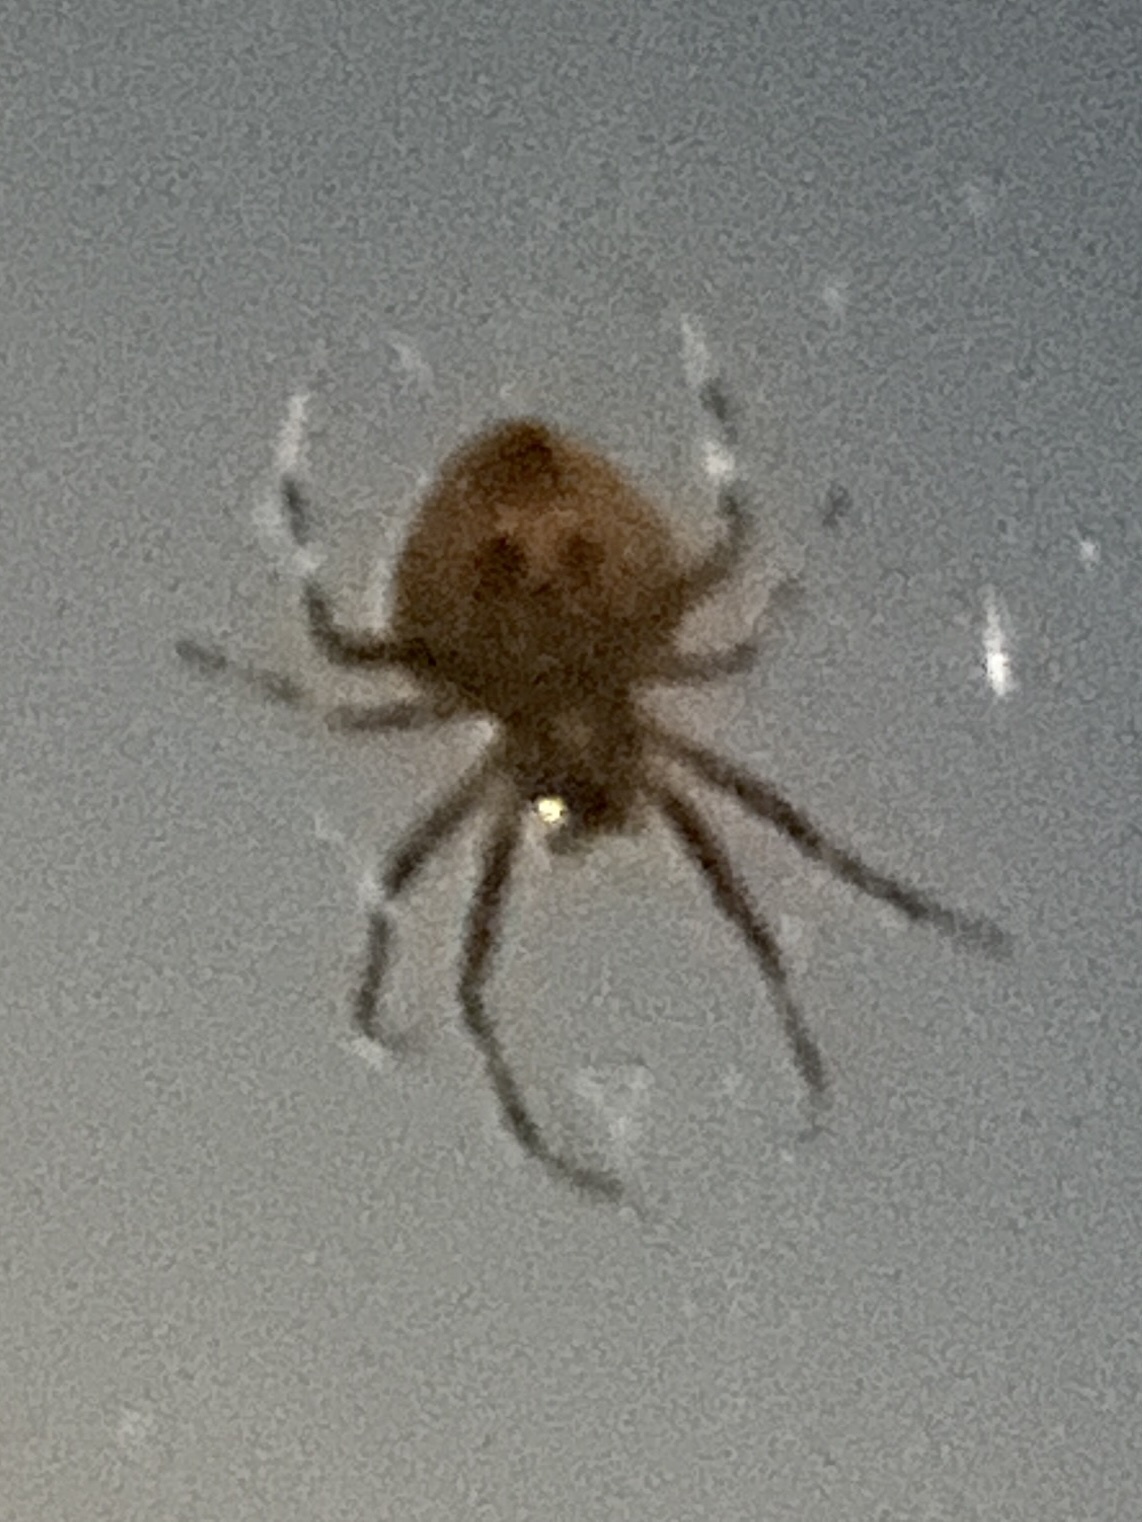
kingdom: Animalia
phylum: Arthropoda
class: Arachnida
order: Araneae
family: Araneidae
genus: Neoscona
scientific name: Neoscona triangula
